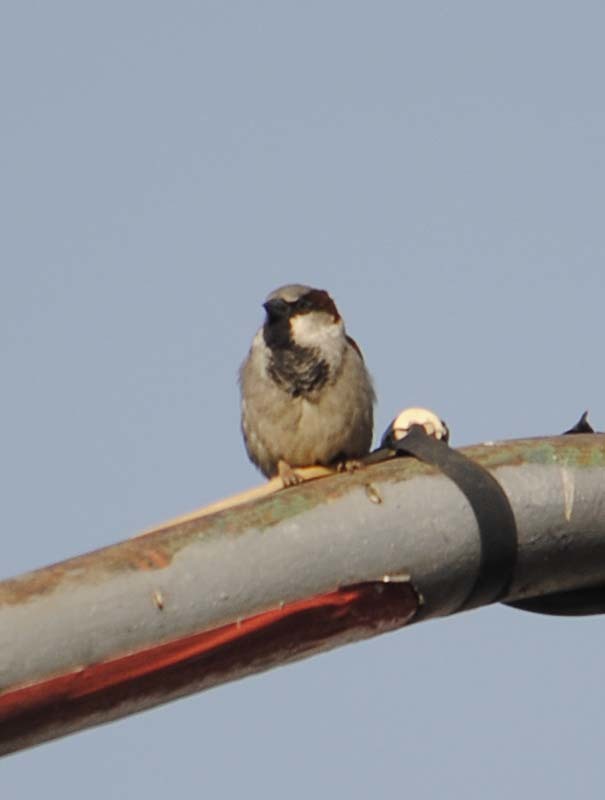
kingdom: Animalia
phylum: Chordata
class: Aves
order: Passeriformes
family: Passeridae
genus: Passer
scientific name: Passer domesticus
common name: House sparrow
